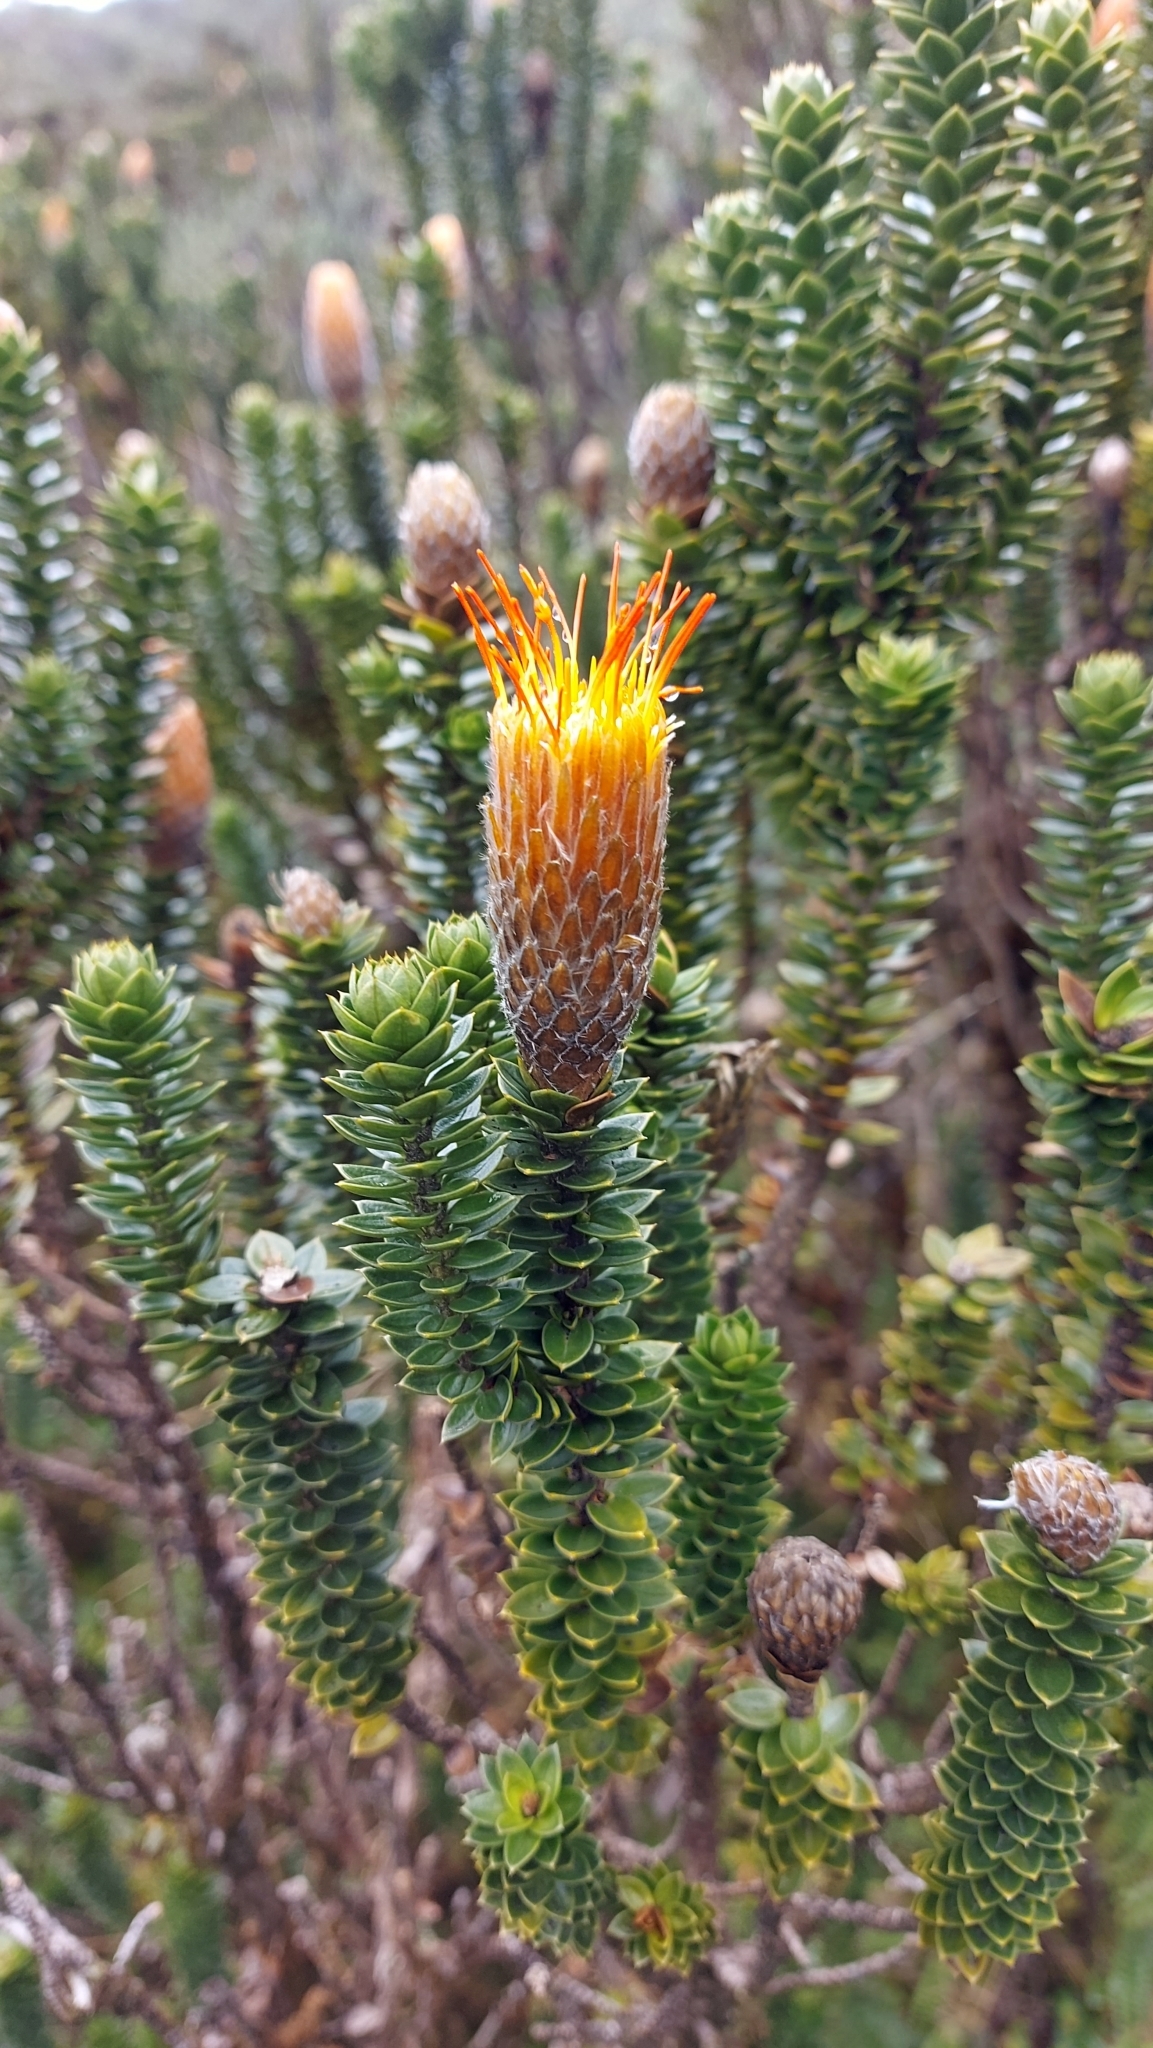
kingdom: Plantae
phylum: Tracheophyta
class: Magnoliopsida
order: Asterales
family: Asteraceae
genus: Chuquiraga
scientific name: Chuquiraga jussieui
